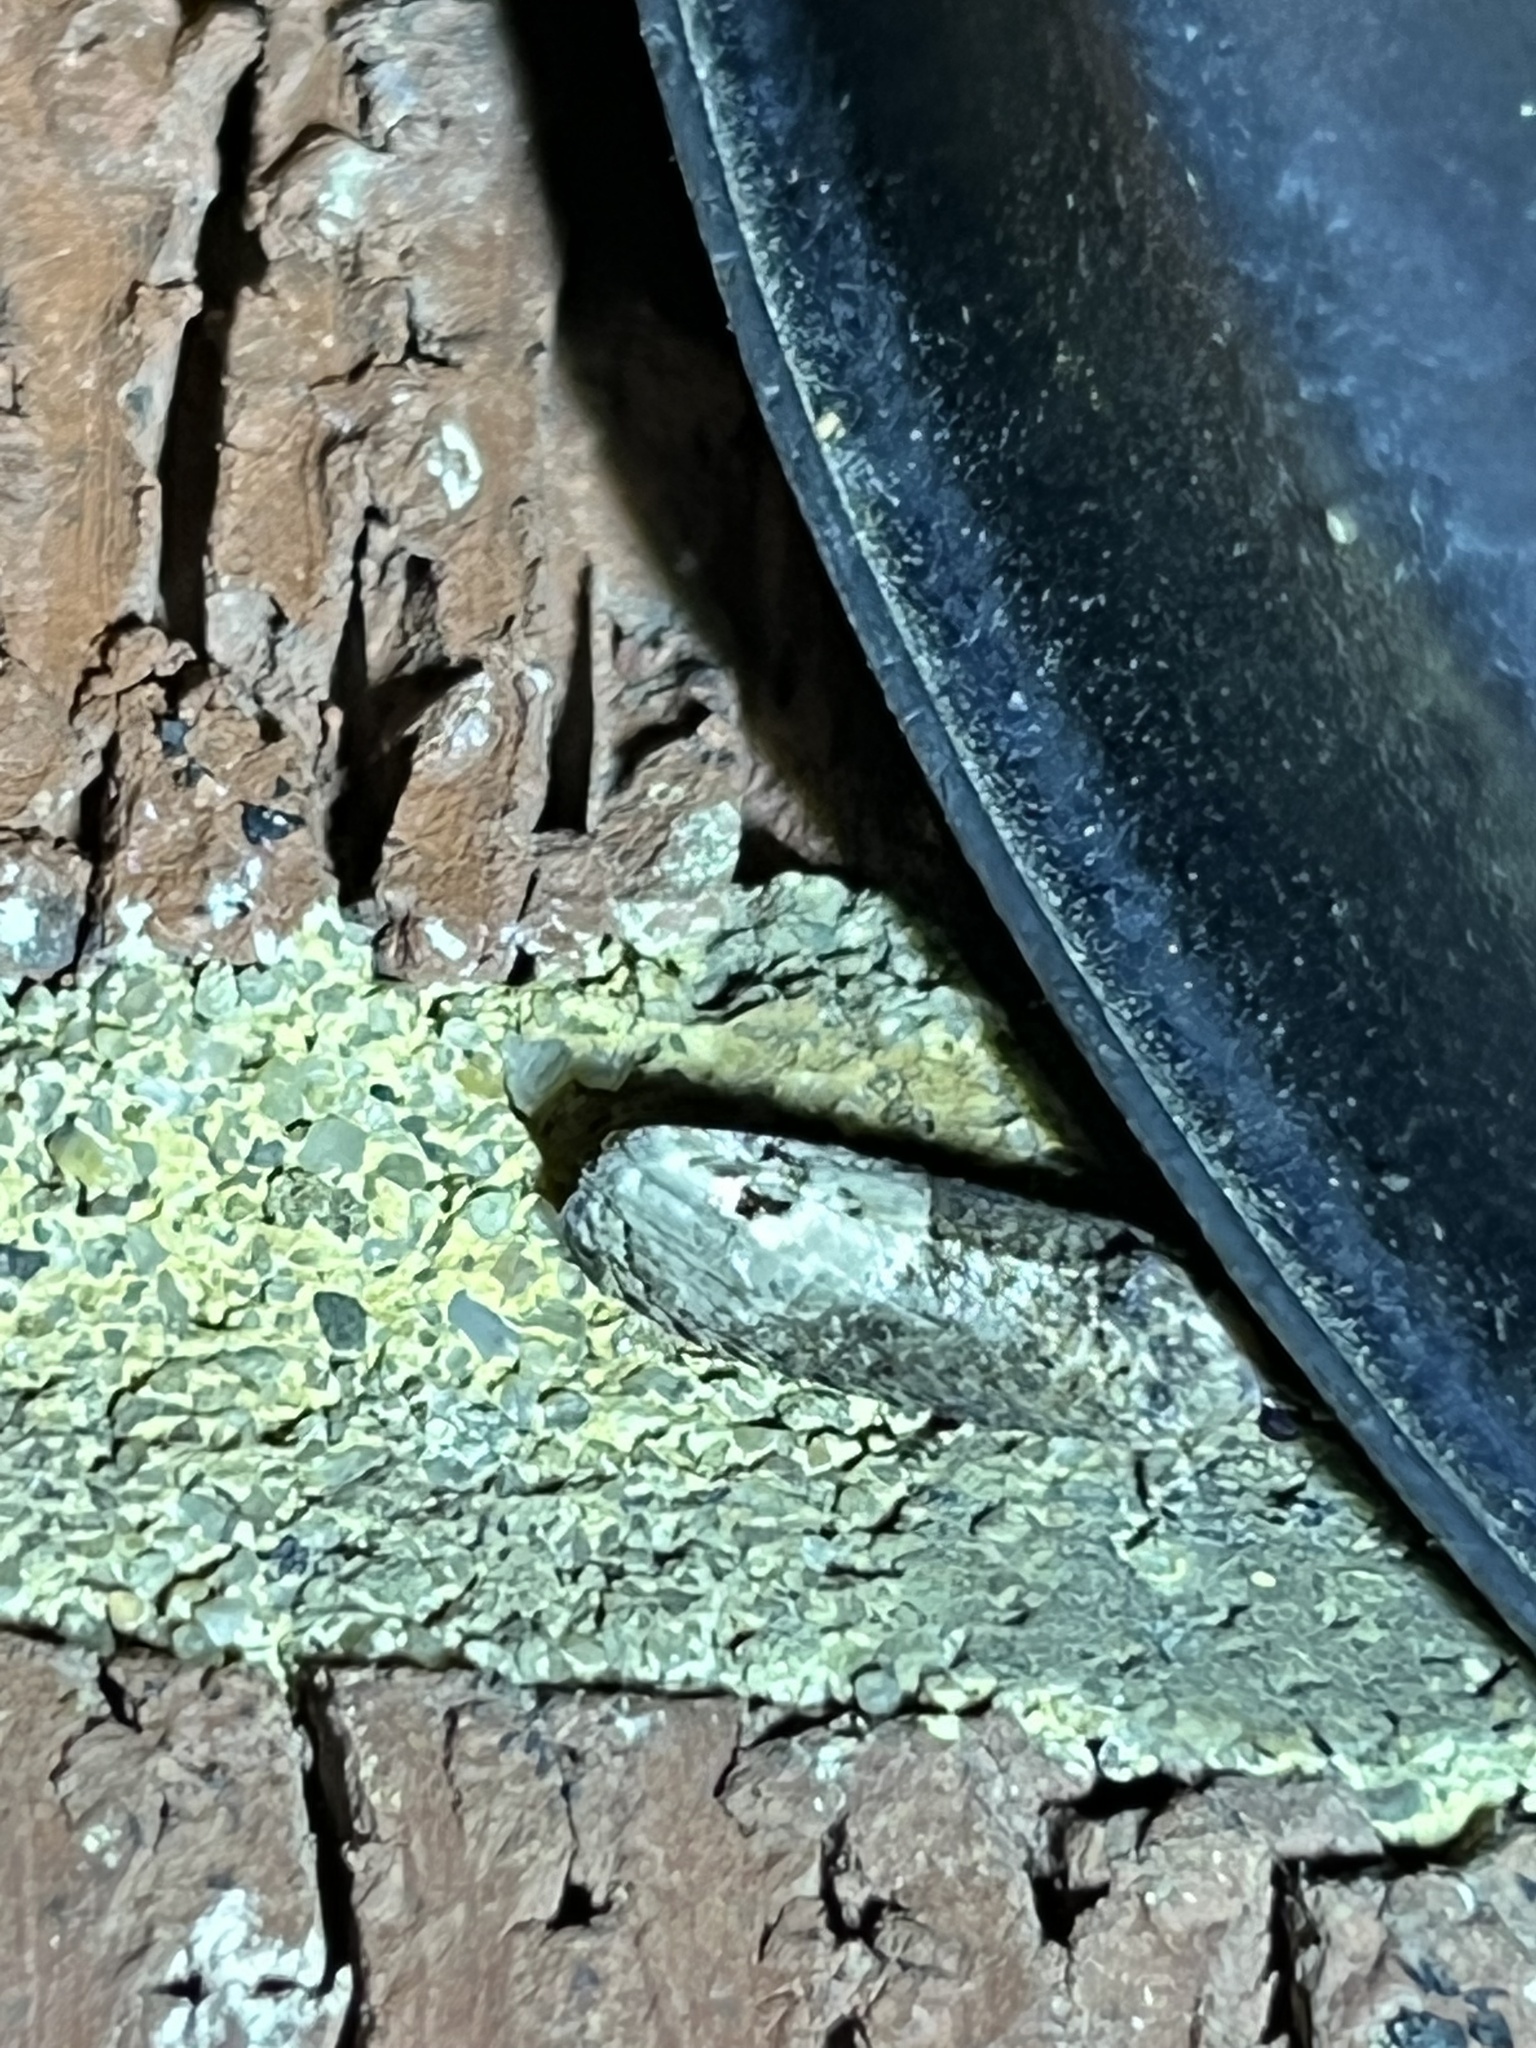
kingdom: Animalia
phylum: Arthropoda
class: Insecta
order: Lepidoptera
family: Tortricidae
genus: Ecdytolopha
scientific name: Ecdytolopha insiticiana
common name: Locust twig borer moth
